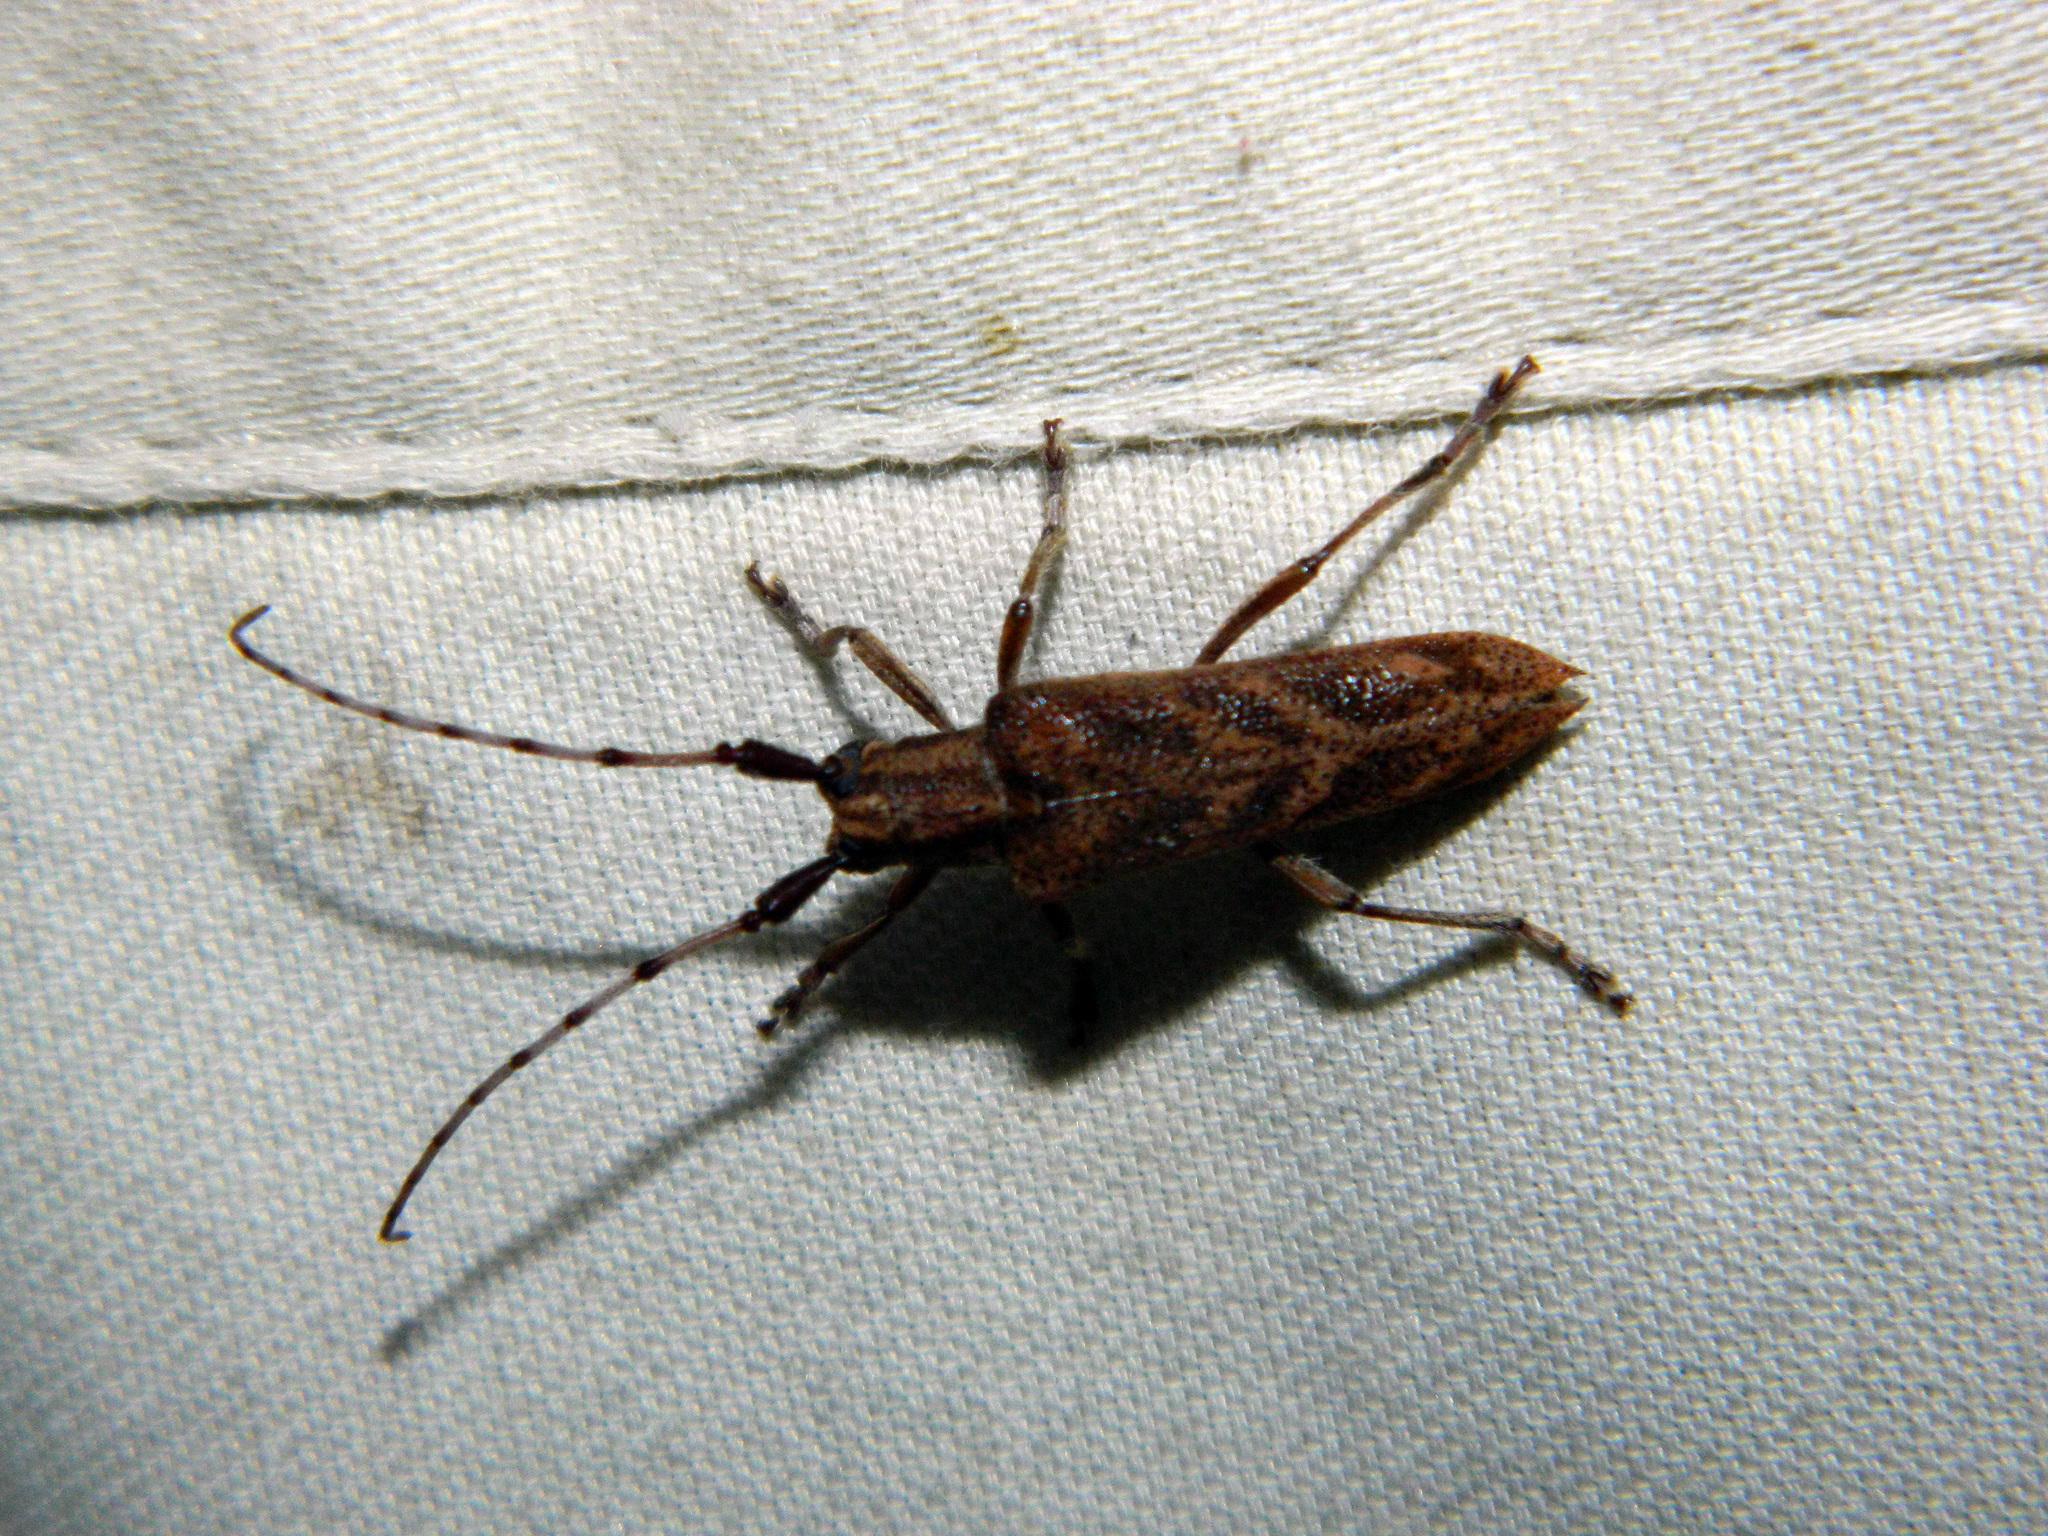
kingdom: Animalia
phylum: Arthropoda
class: Insecta
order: Coleoptera
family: Cerambycidae
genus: Saperda
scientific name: Saperda obliqua
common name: Alder borer
